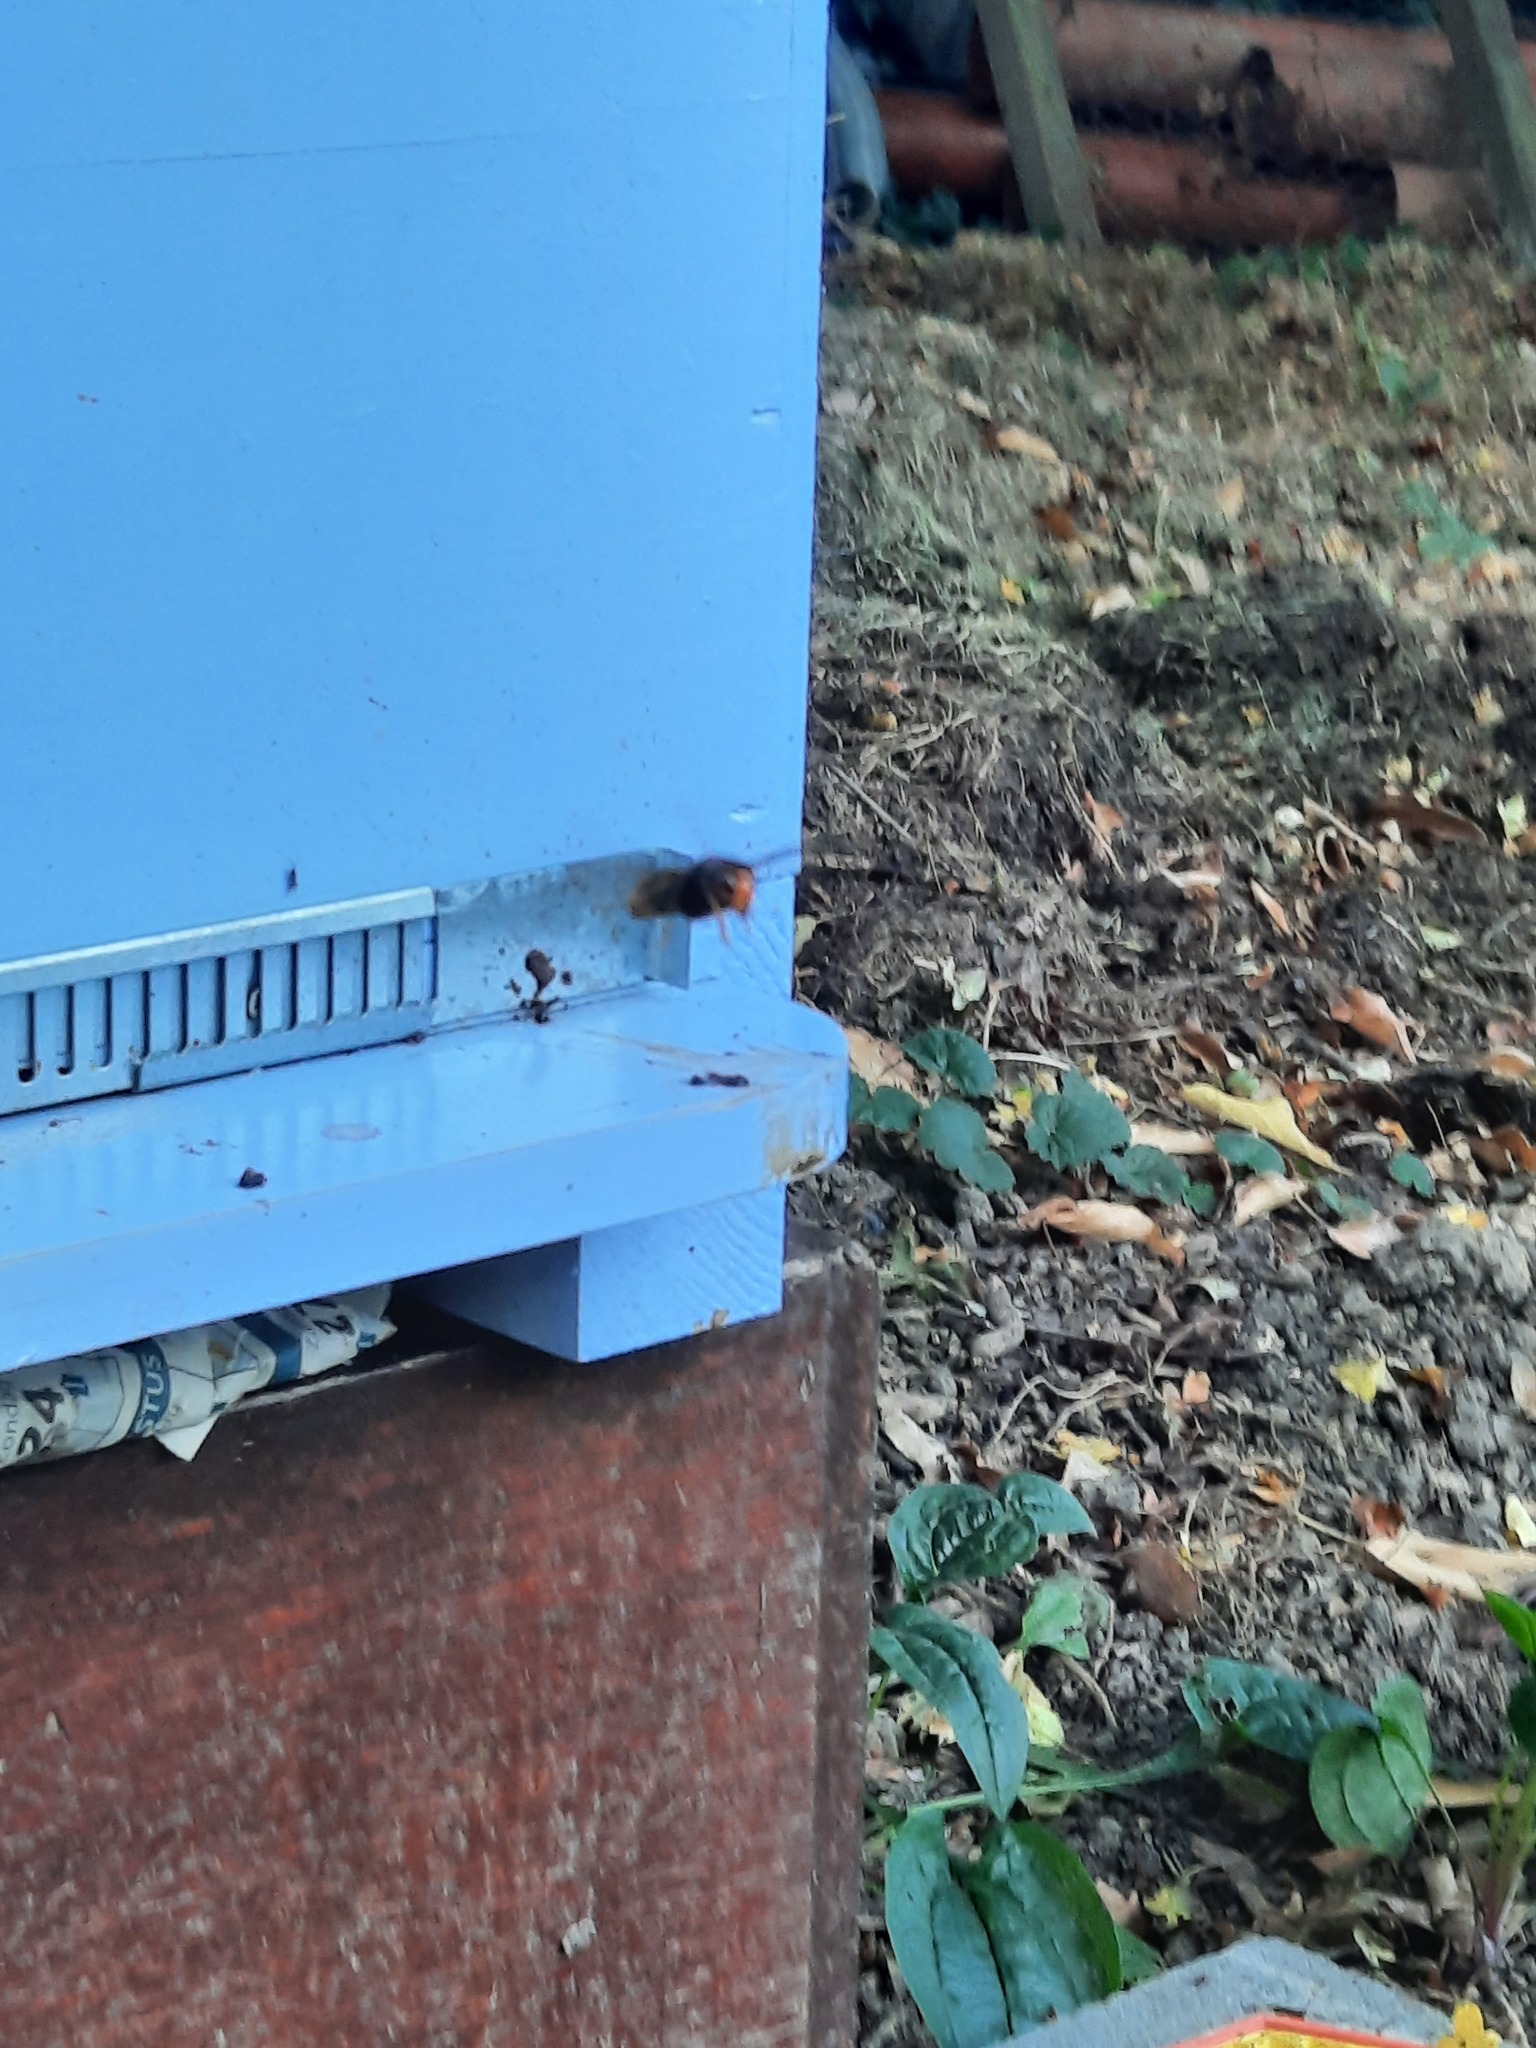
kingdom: Animalia
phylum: Arthropoda
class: Insecta
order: Hymenoptera
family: Vespidae
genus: Vespa
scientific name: Vespa velutina
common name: Asian hornet
